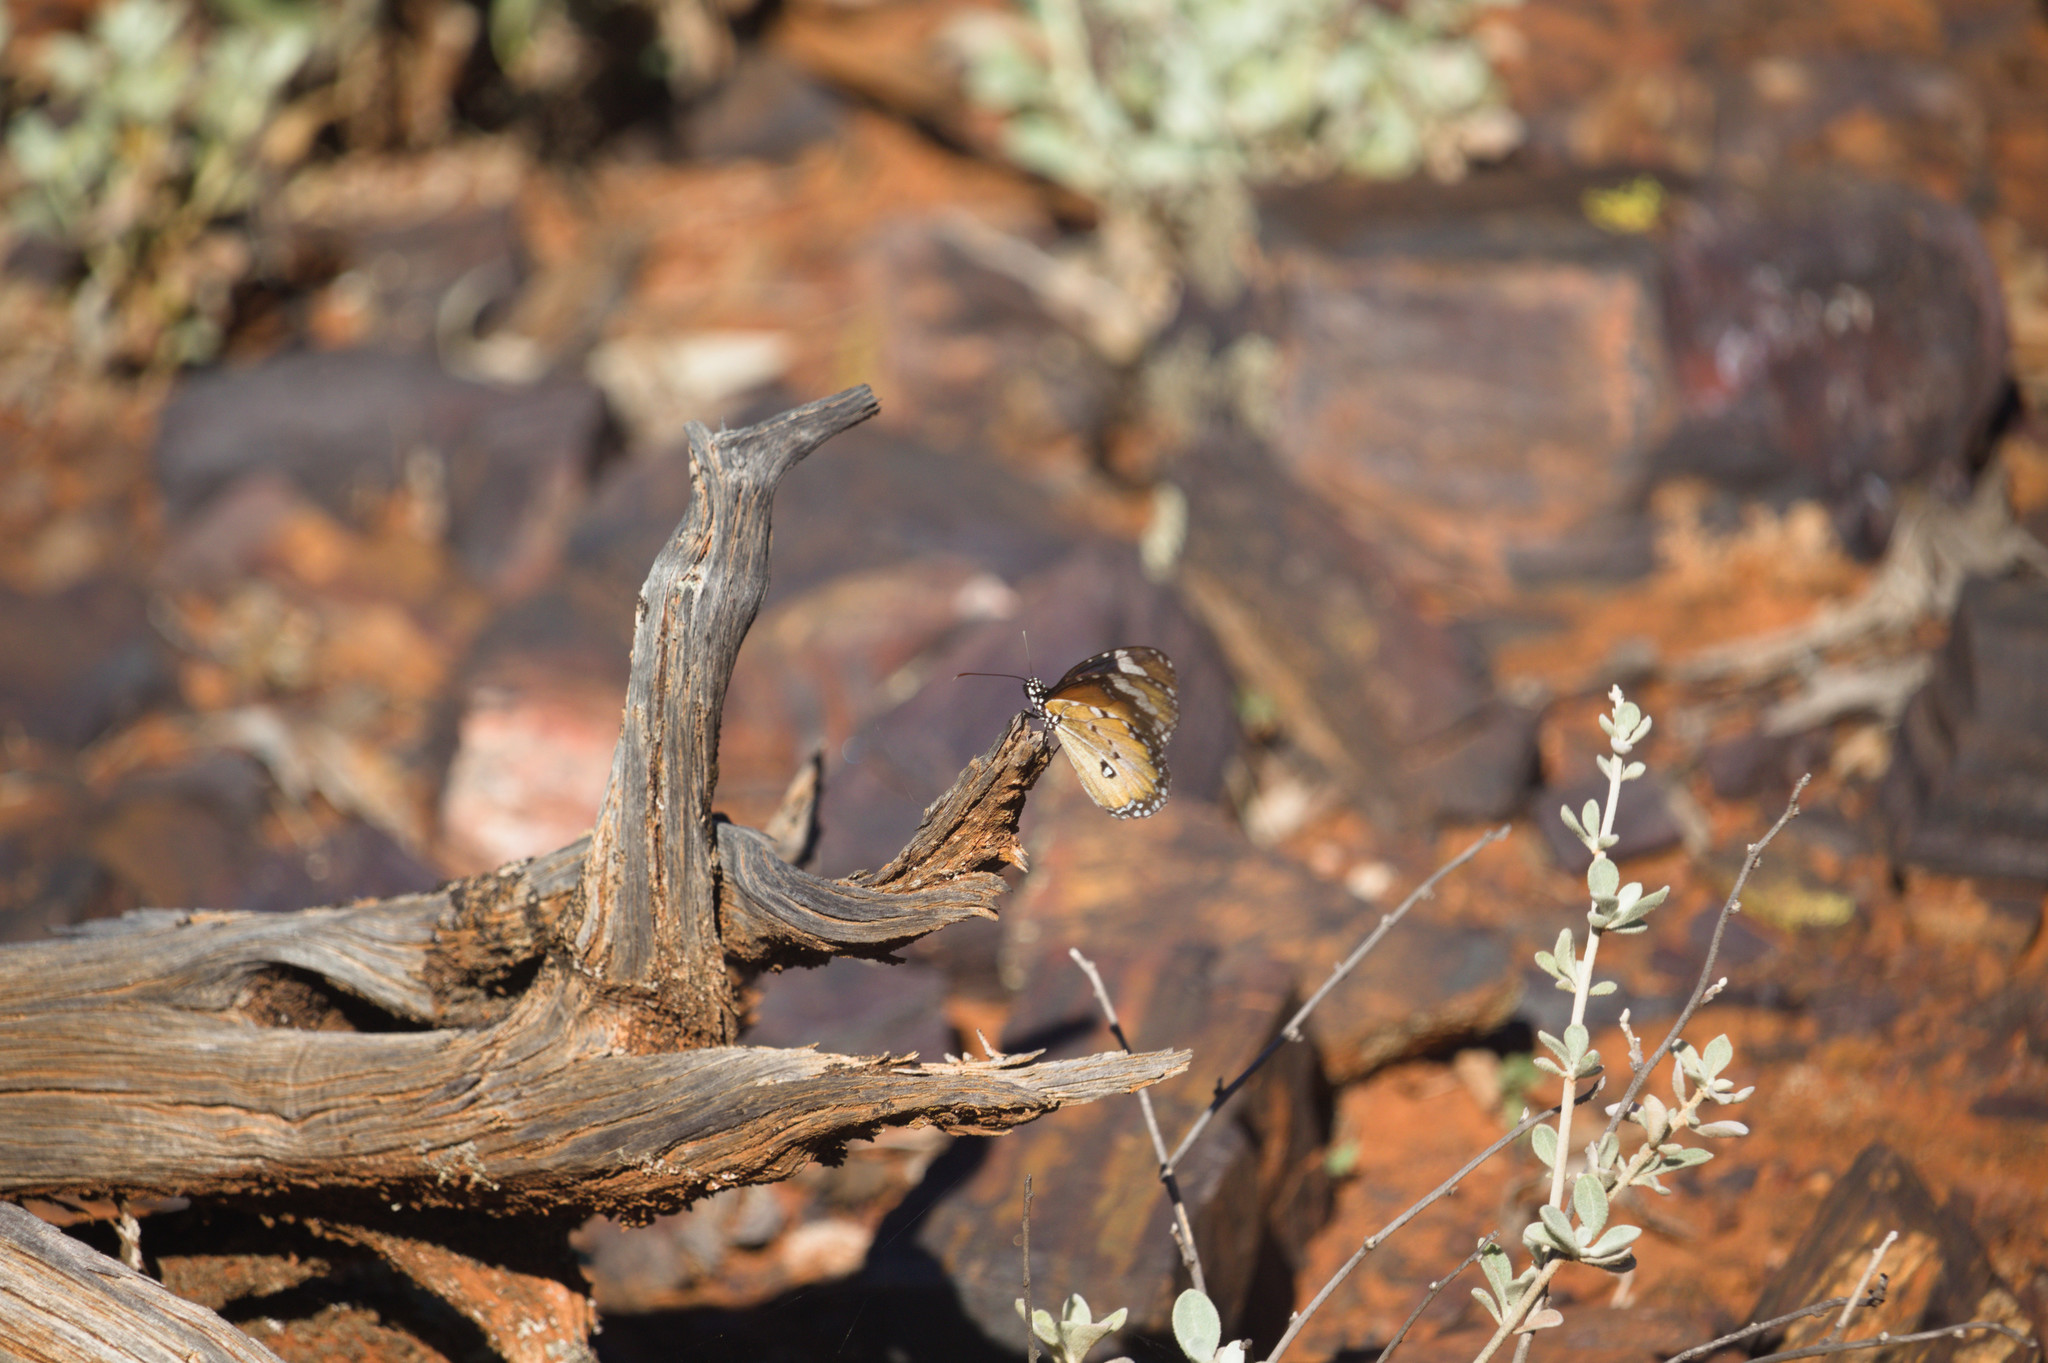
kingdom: Animalia
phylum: Arthropoda
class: Insecta
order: Lepidoptera
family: Nymphalidae
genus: Danaus
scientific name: Danaus chrysippus
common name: Plain tiger
